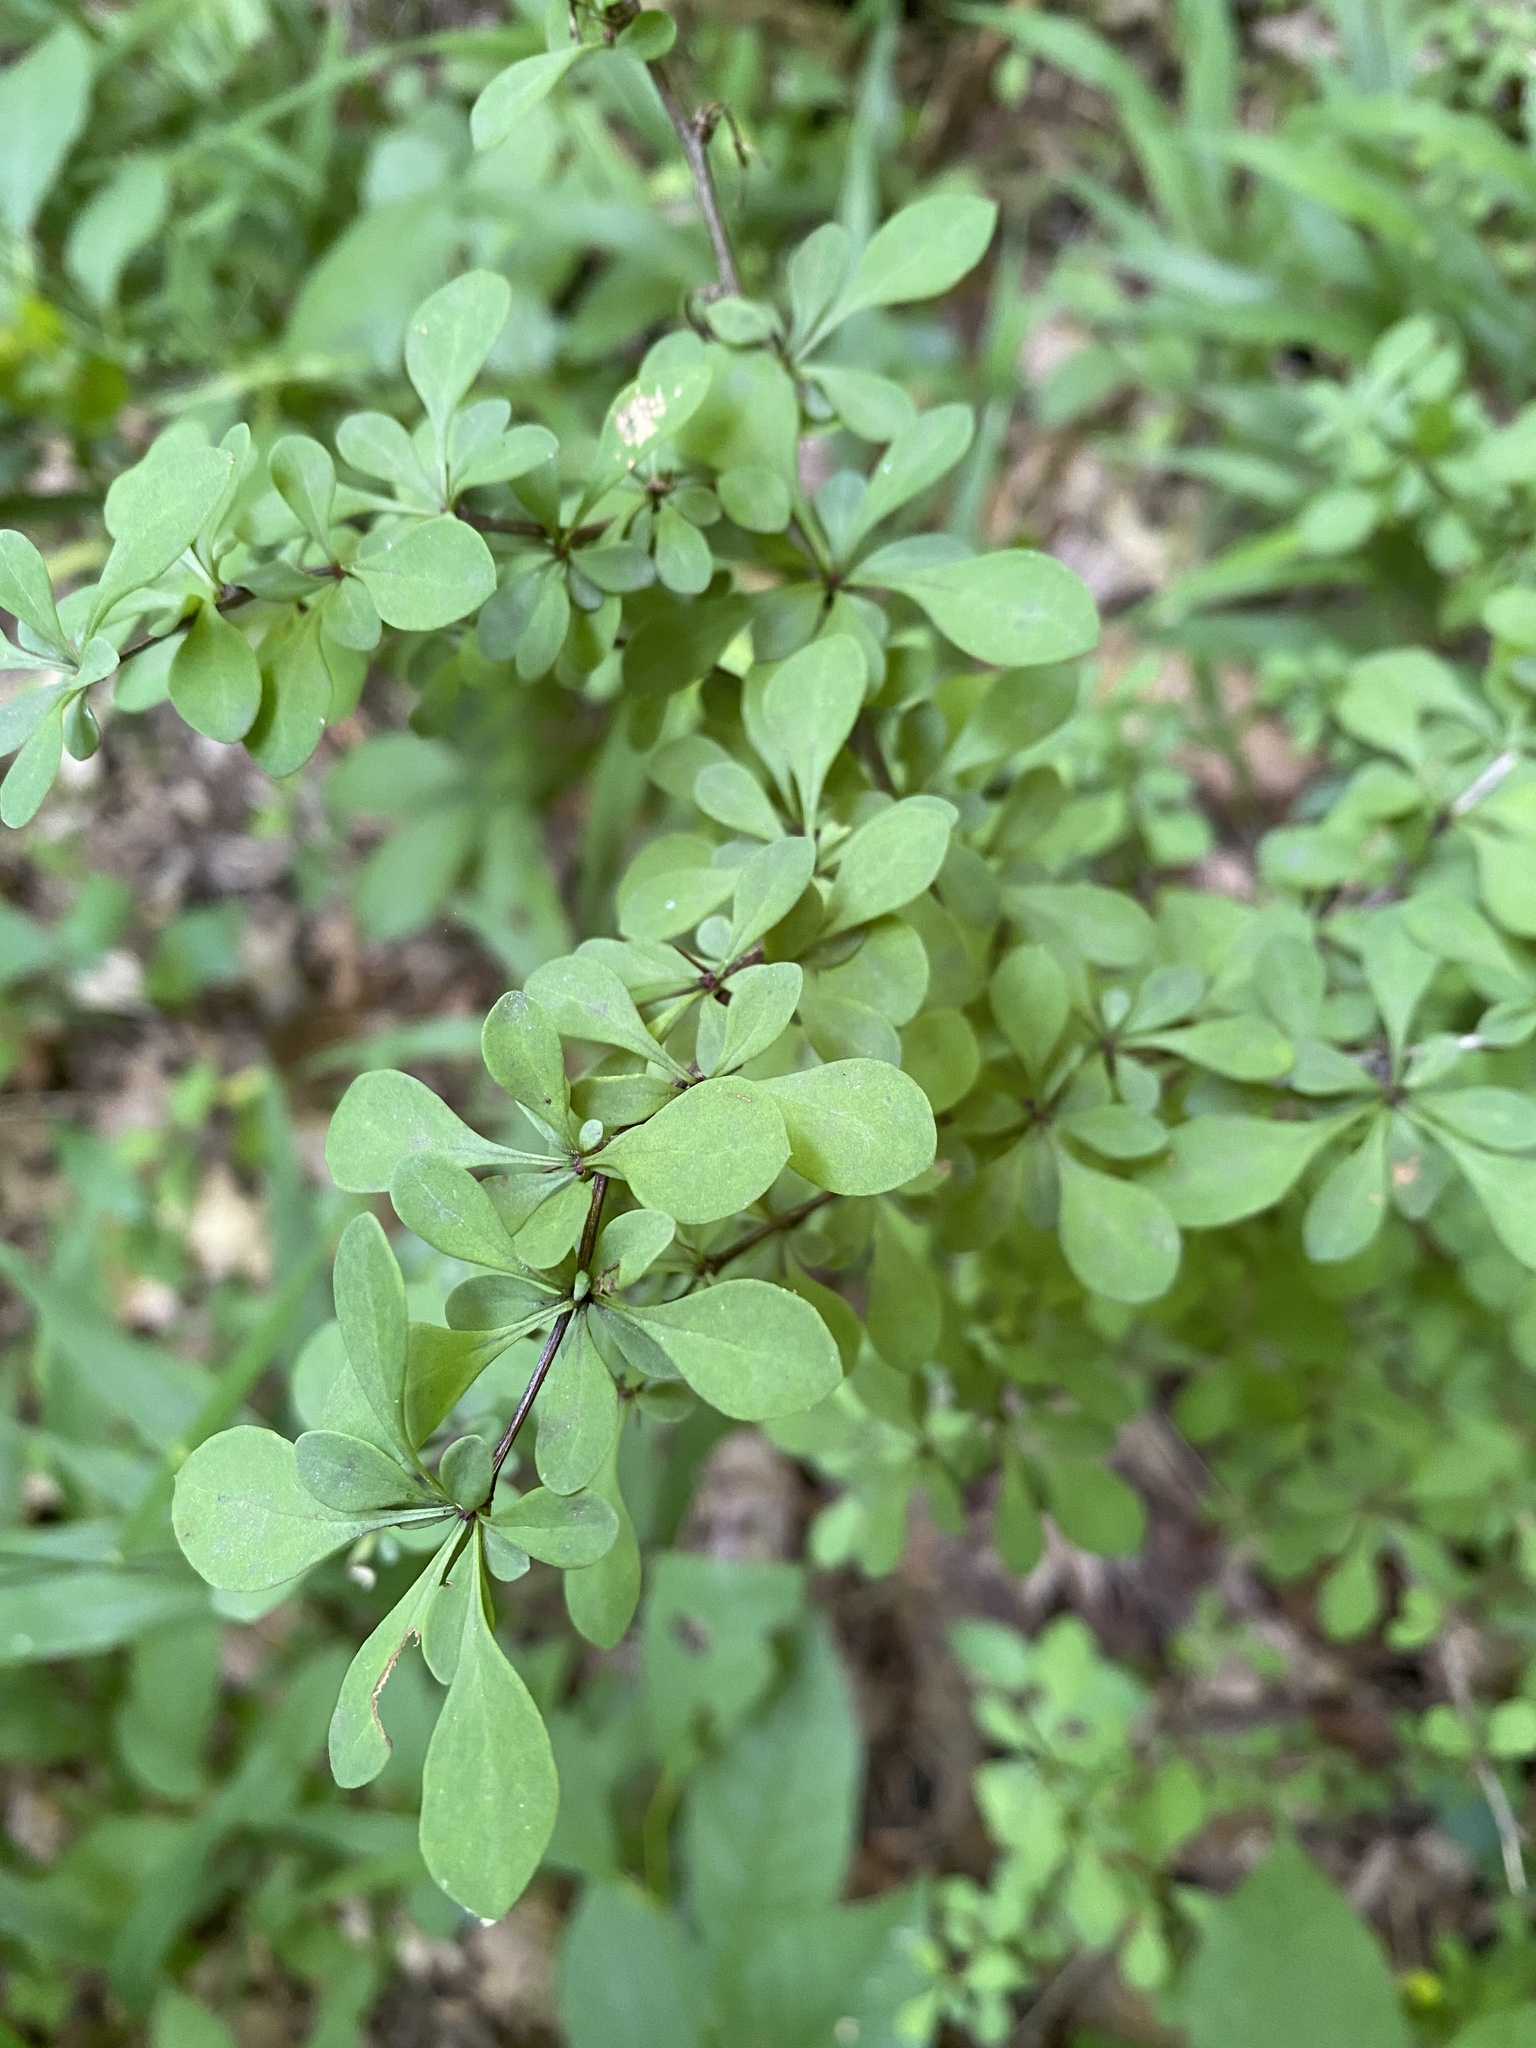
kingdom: Plantae
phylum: Tracheophyta
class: Magnoliopsida
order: Ranunculales
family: Berberidaceae
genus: Berberis
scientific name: Berberis thunbergii
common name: Japanese barberry
